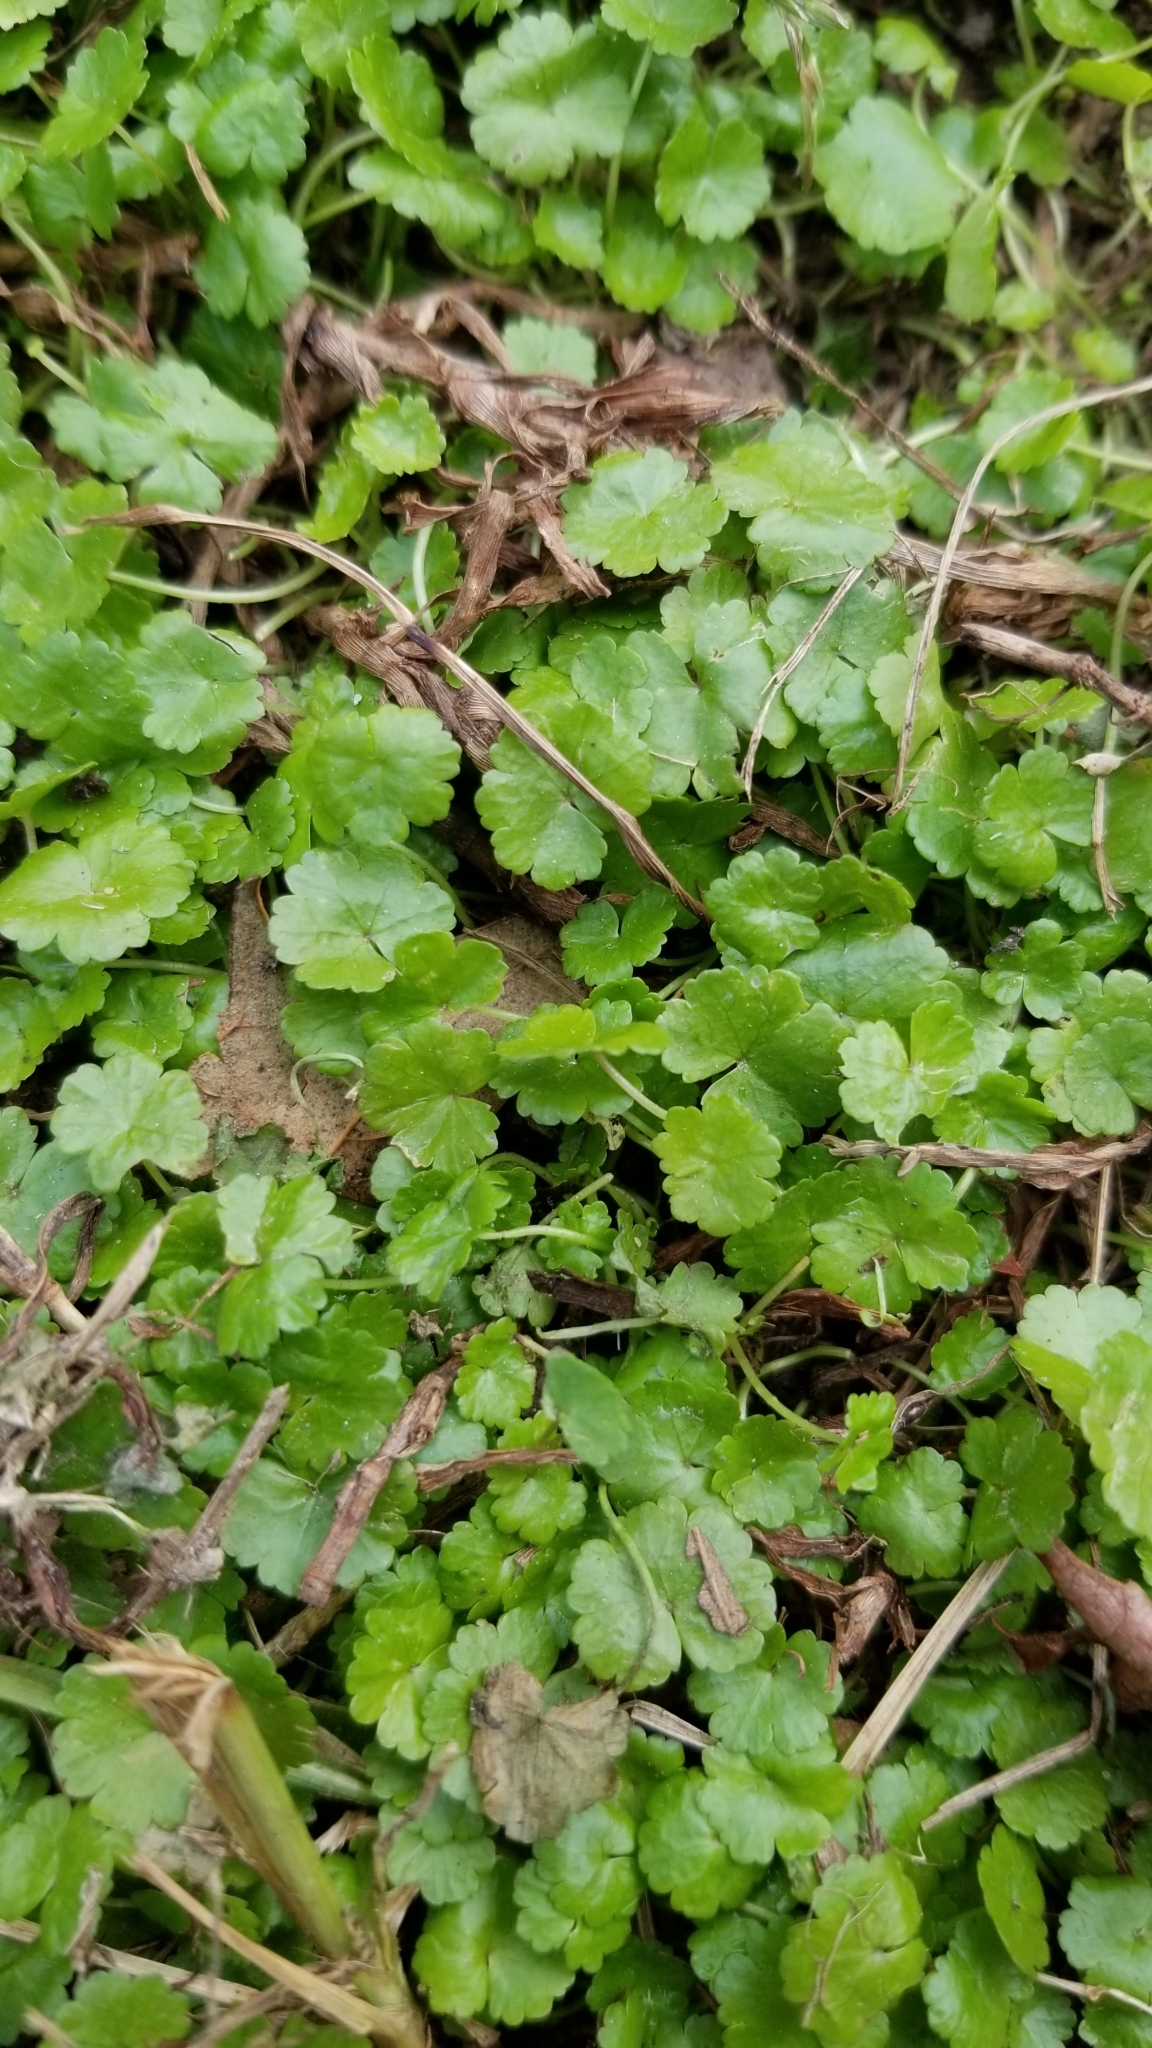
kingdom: Plantae
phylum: Tracheophyta
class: Magnoliopsida
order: Apiales
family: Araliaceae
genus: Hydrocotyle
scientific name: Hydrocotyle sibthorpioides
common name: Lawn marshpennywort
